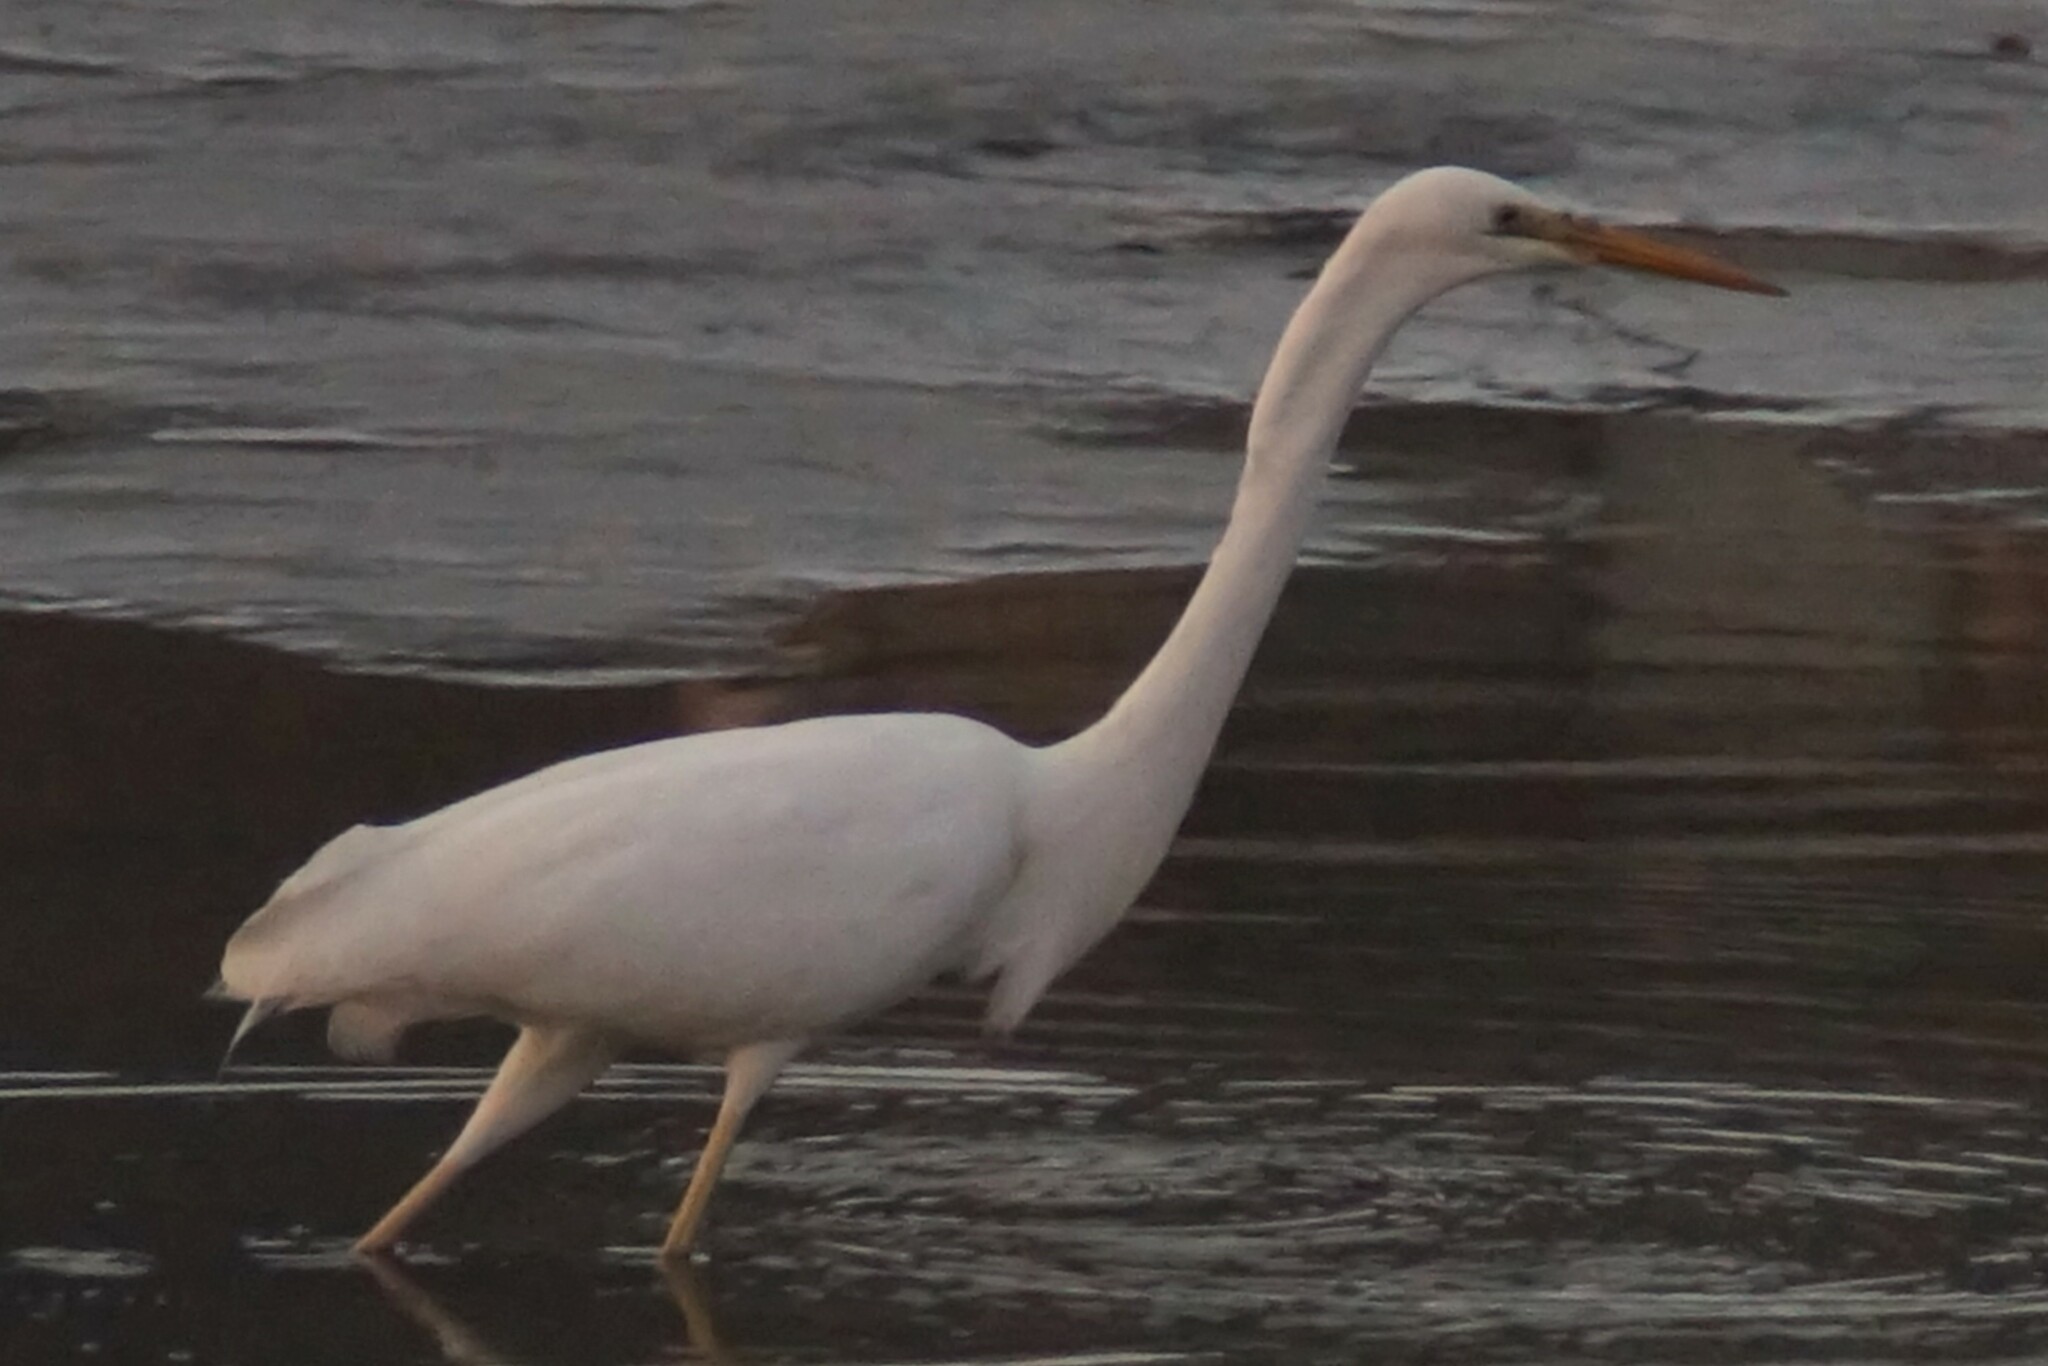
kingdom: Animalia
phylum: Chordata
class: Aves
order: Pelecaniformes
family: Ardeidae
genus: Ardea
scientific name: Ardea alba
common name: Great egret
